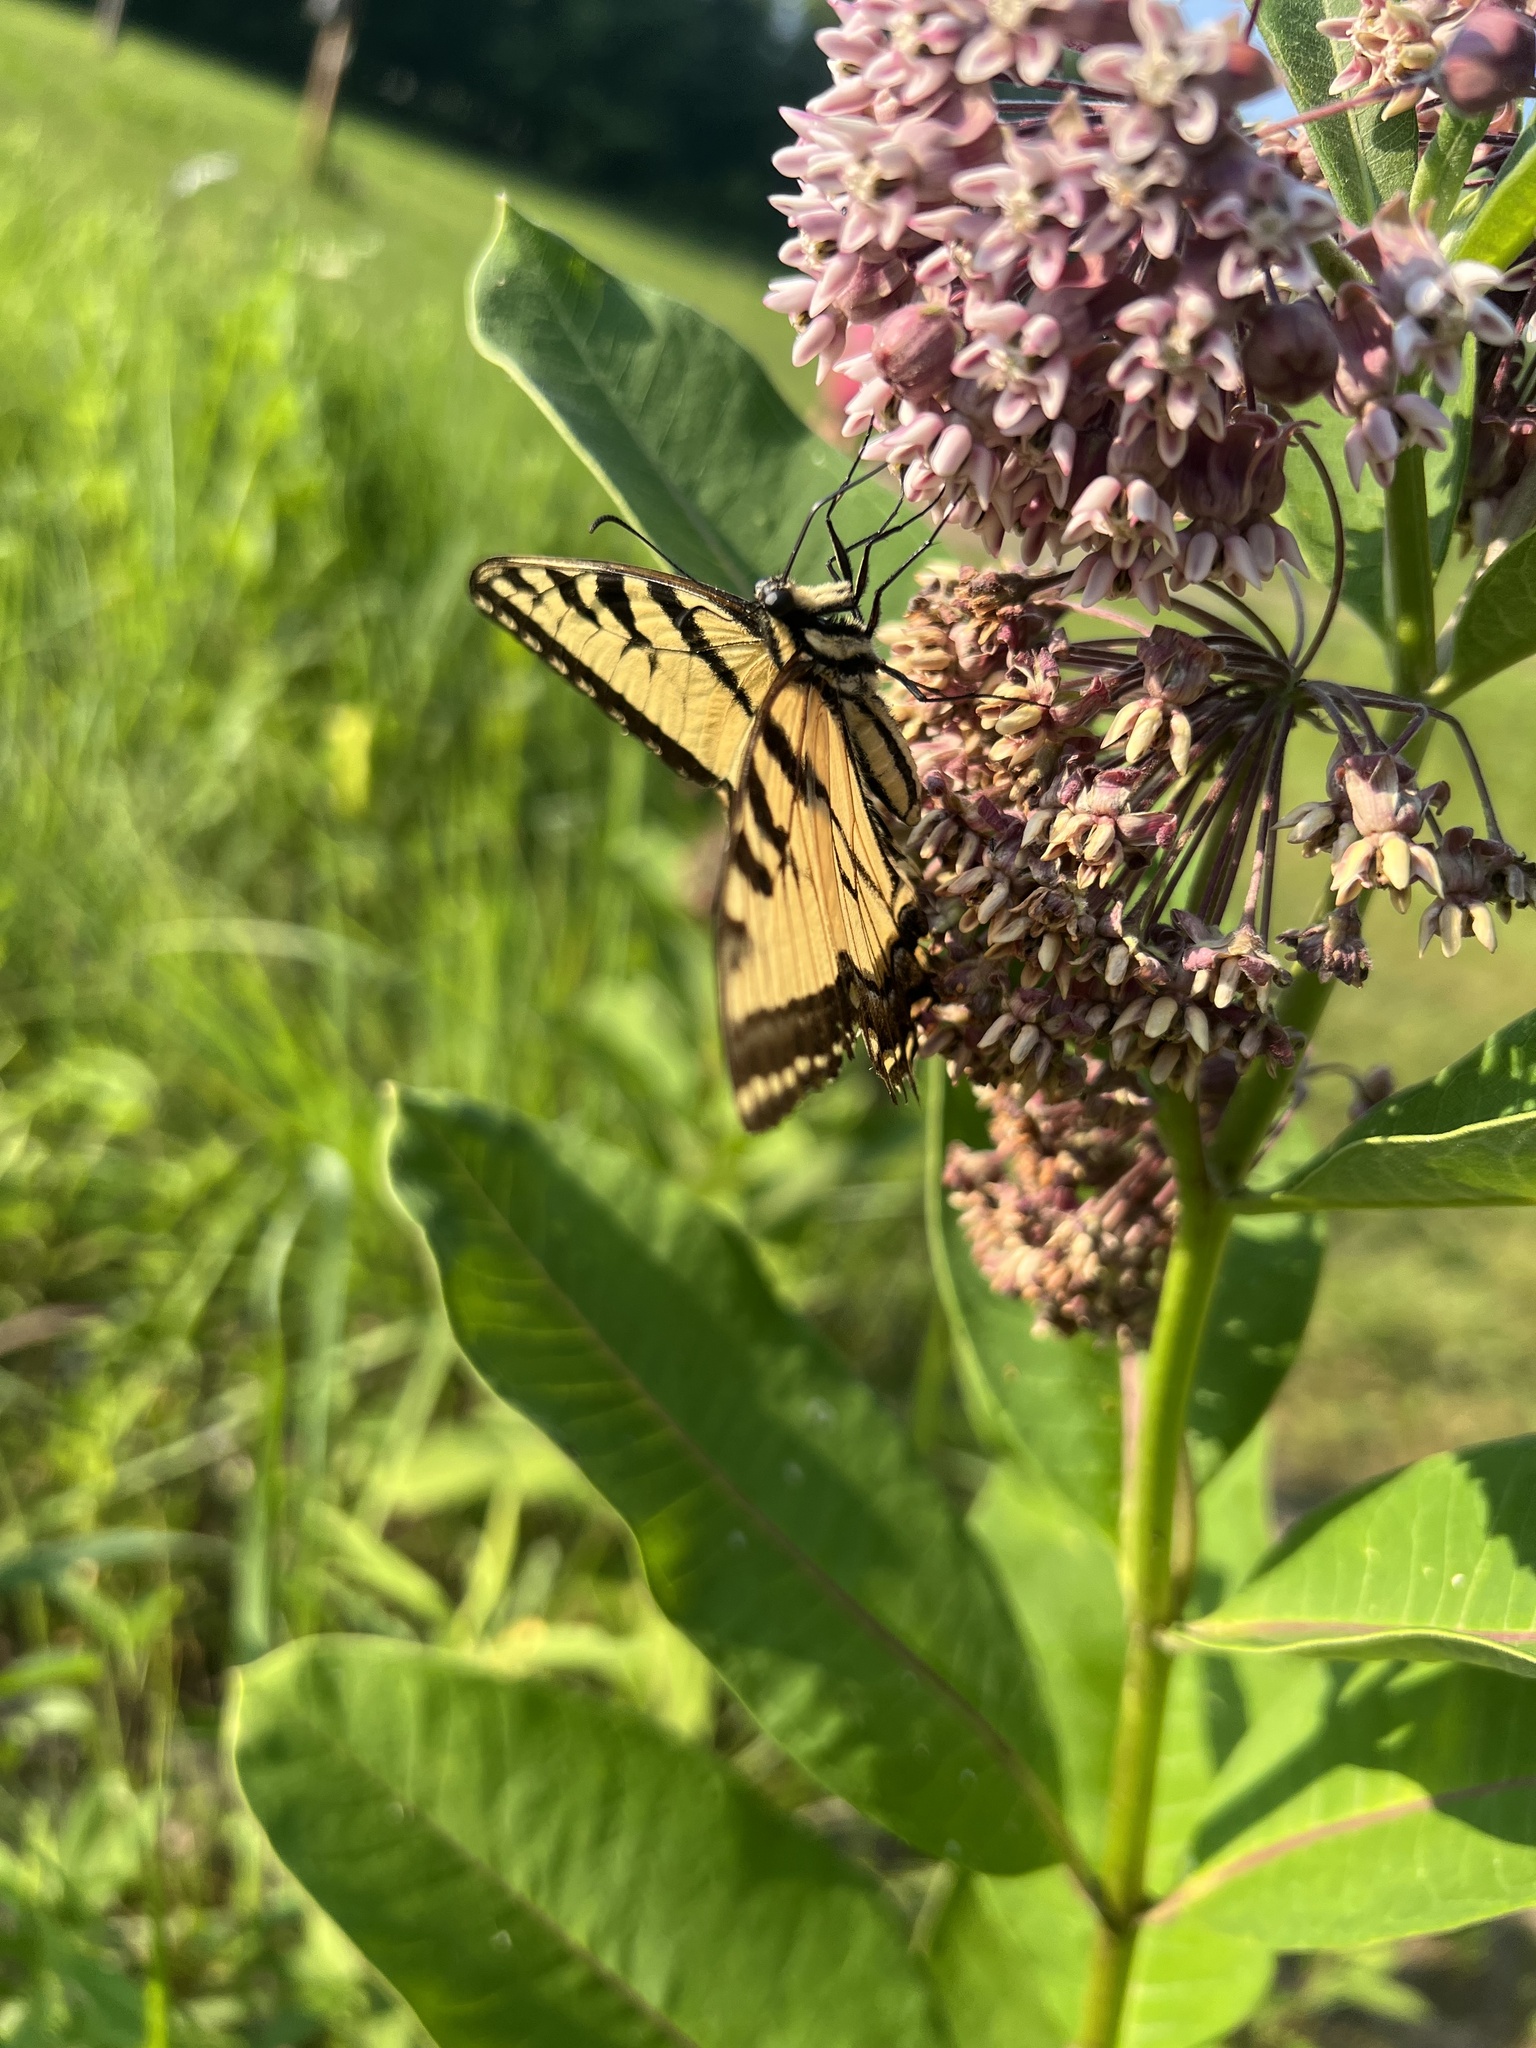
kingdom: Animalia
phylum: Arthropoda
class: Insecta
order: Lepidoptera
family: Papilionidae
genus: Papilio
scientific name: Papilio glaucus
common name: Tiger swallowtail
